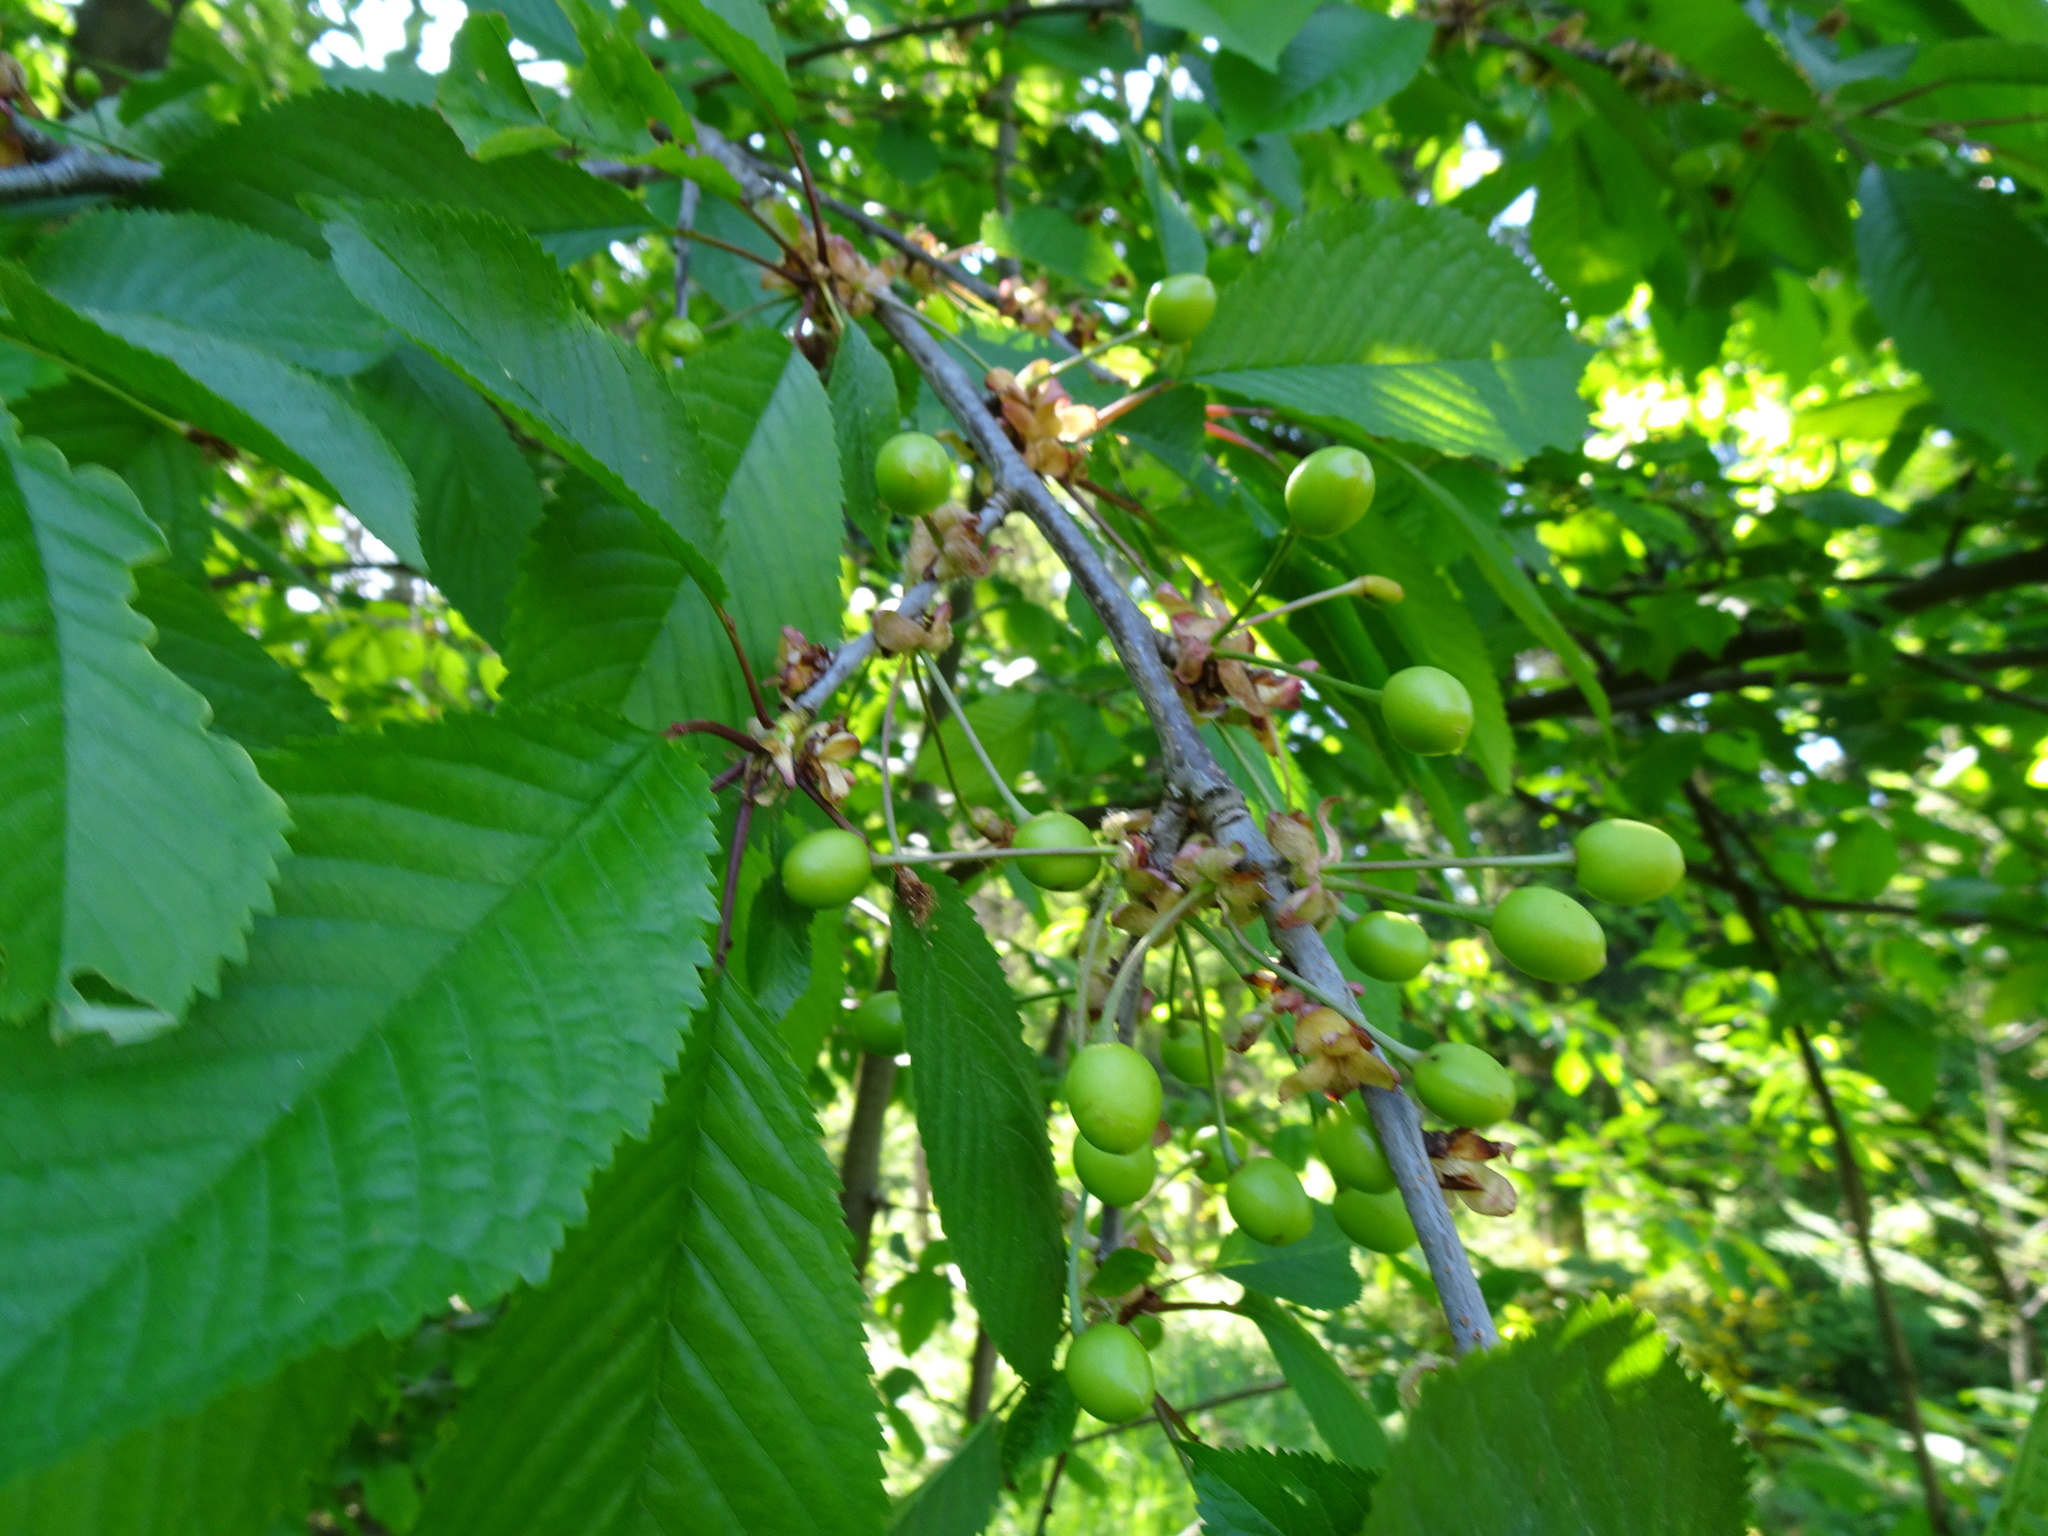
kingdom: Plantae
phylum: Tracheophyta
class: Magnoliopsida
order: Rosales
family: Rosaceae
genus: Prunus
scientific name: Prunus avium
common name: Sweet cherry
